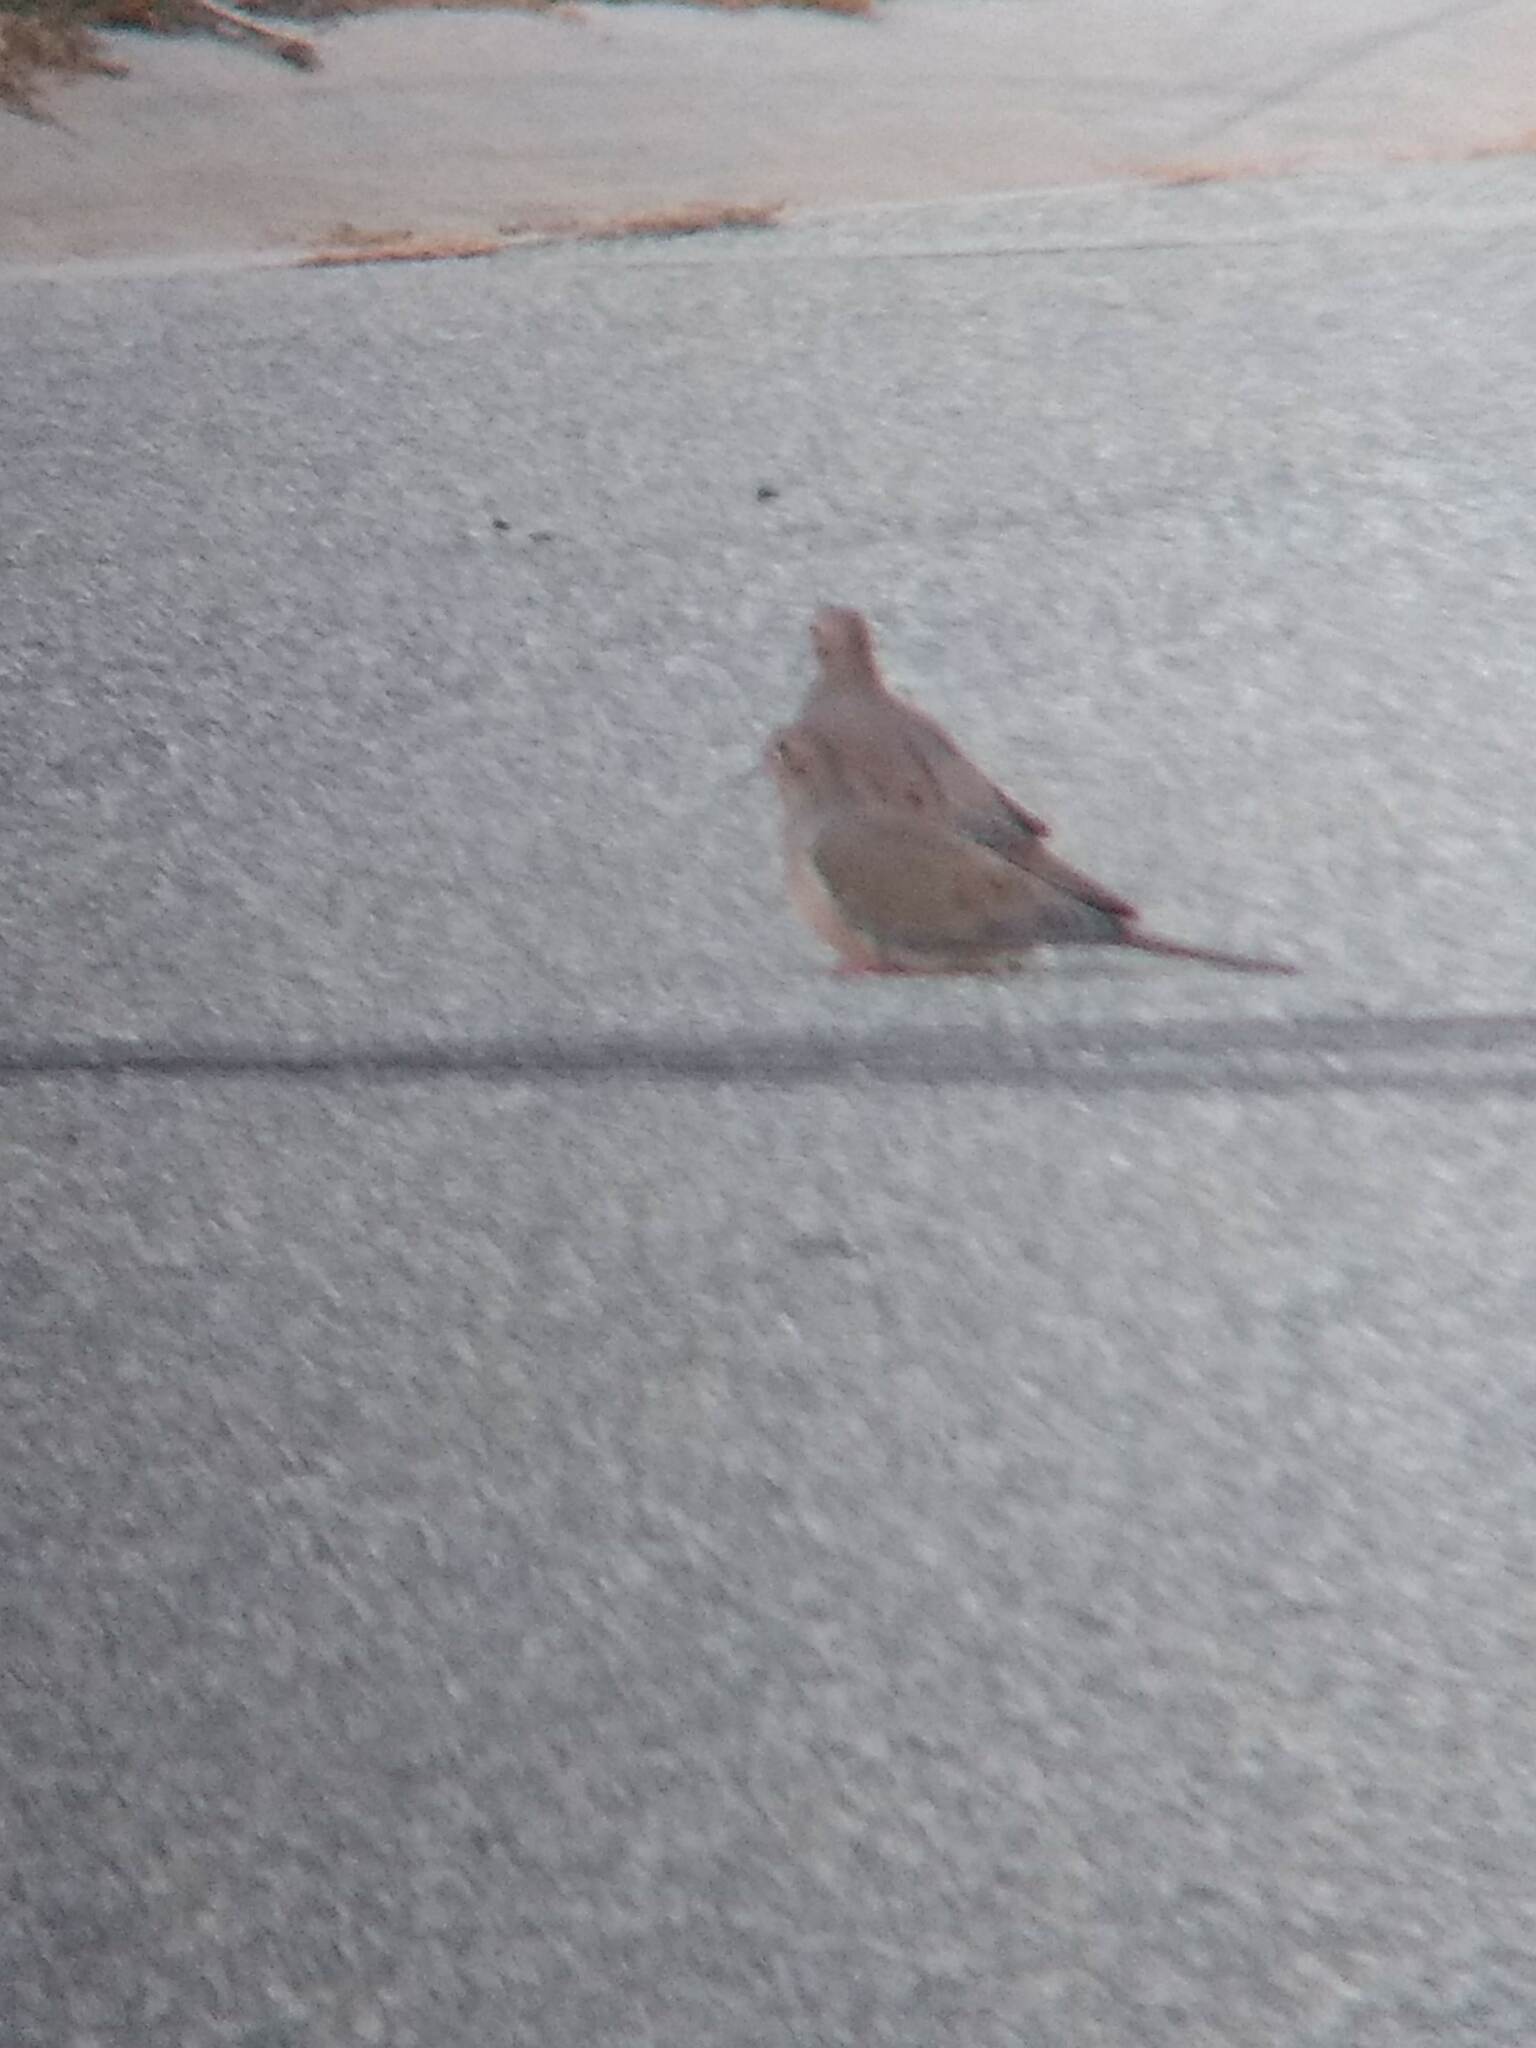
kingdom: Animalia
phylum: Chordata
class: Aves
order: Columbiformes
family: Columbidae
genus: Zenaida
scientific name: Zenaida macroura
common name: Mourning dove
